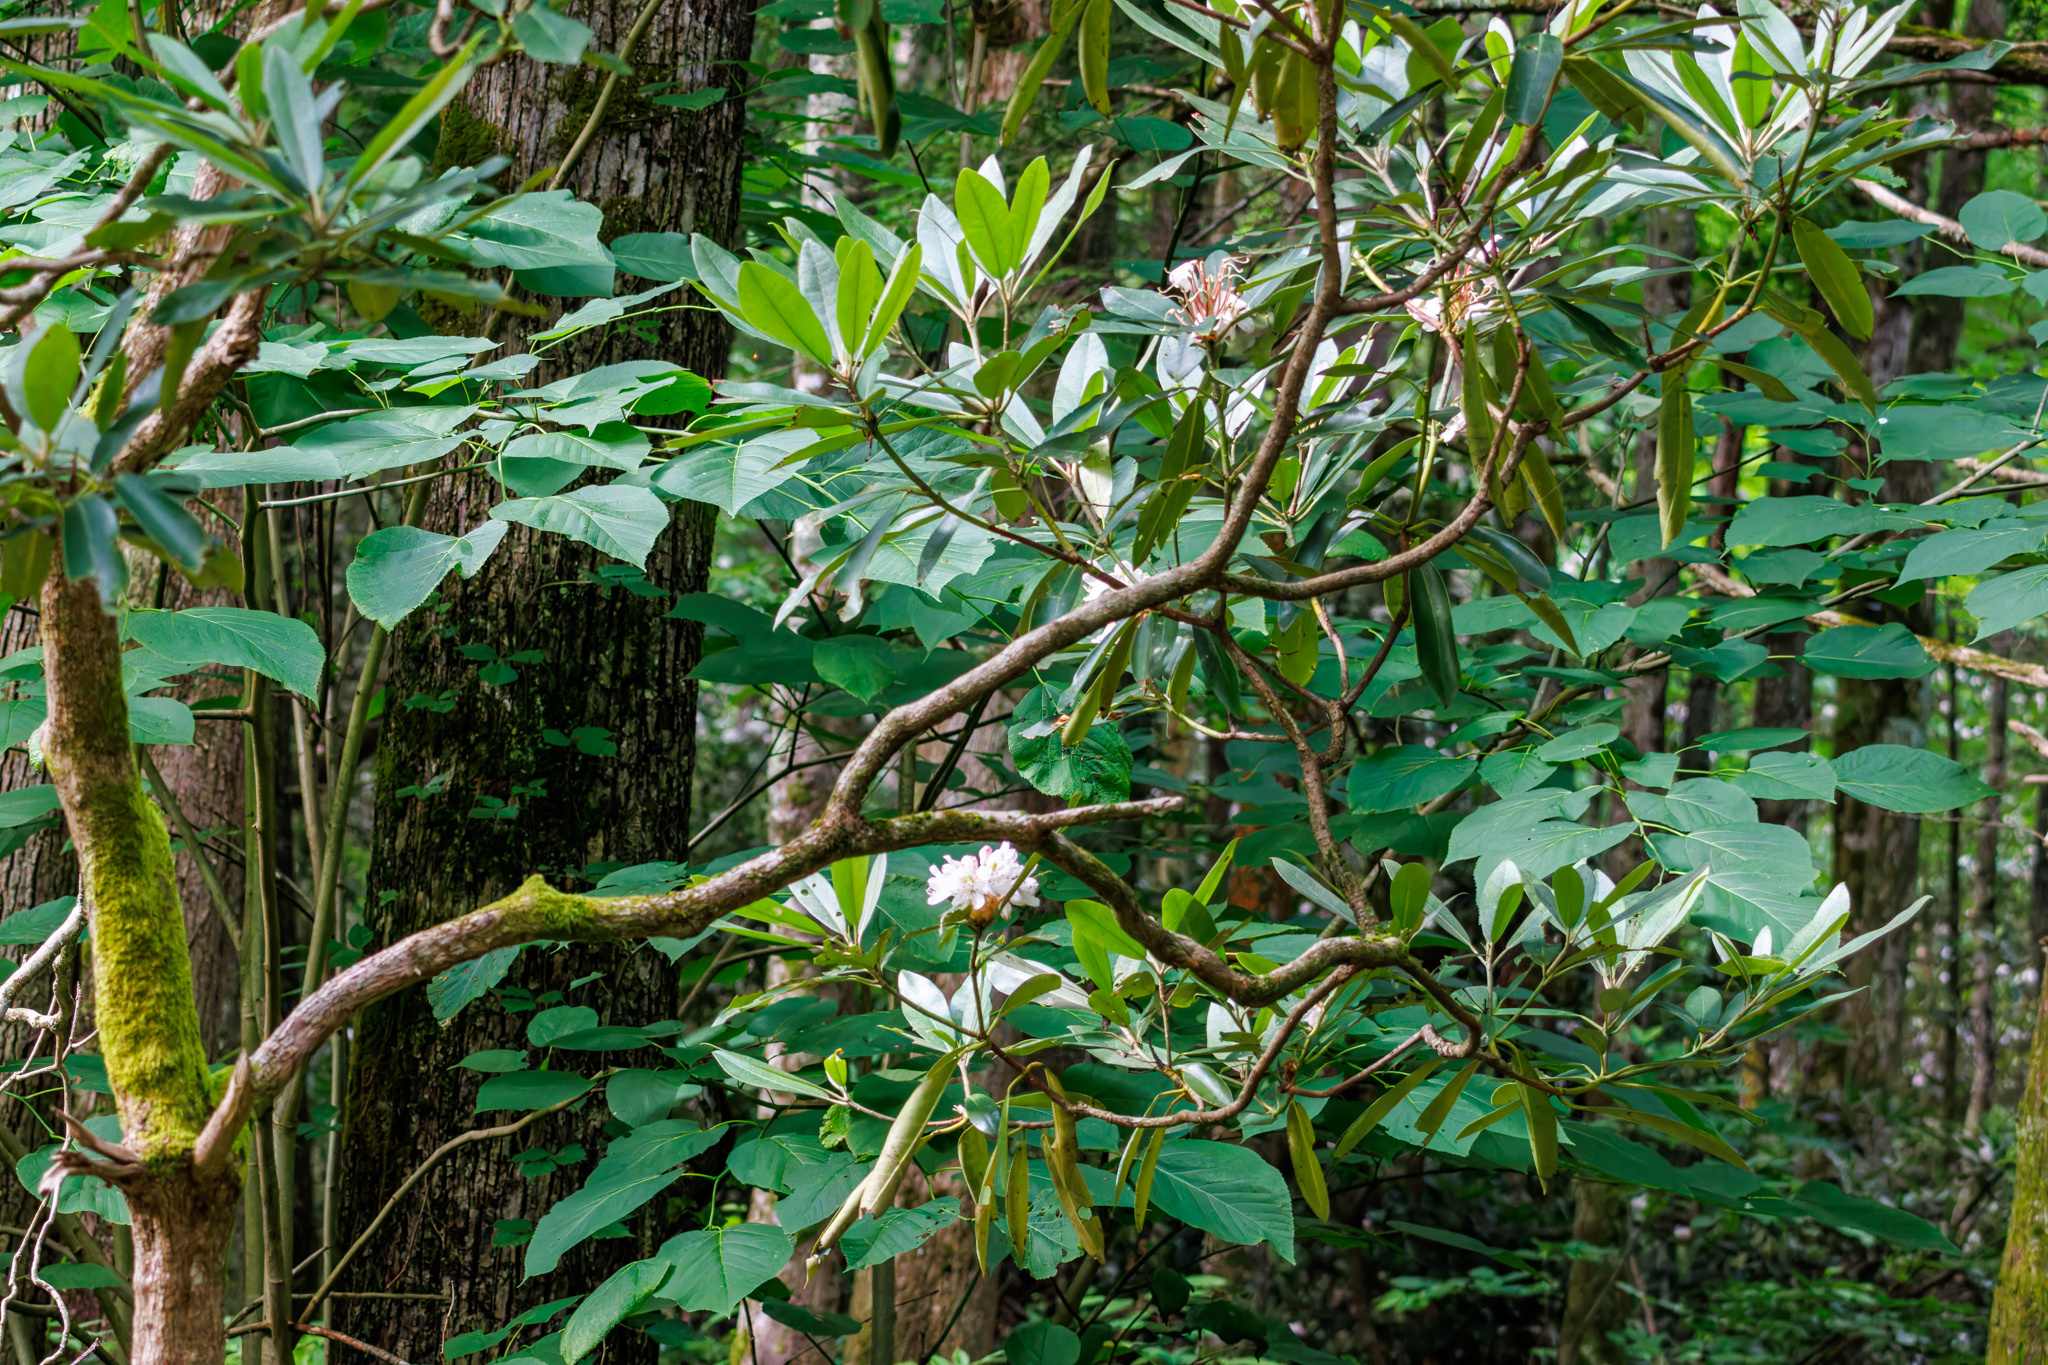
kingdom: Plantae
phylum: Tracheophyta
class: Magnoliopsida
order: Ericales
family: Ericaceae
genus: Rhododendron
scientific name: Rhododendron maximum
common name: Great rhododendron
